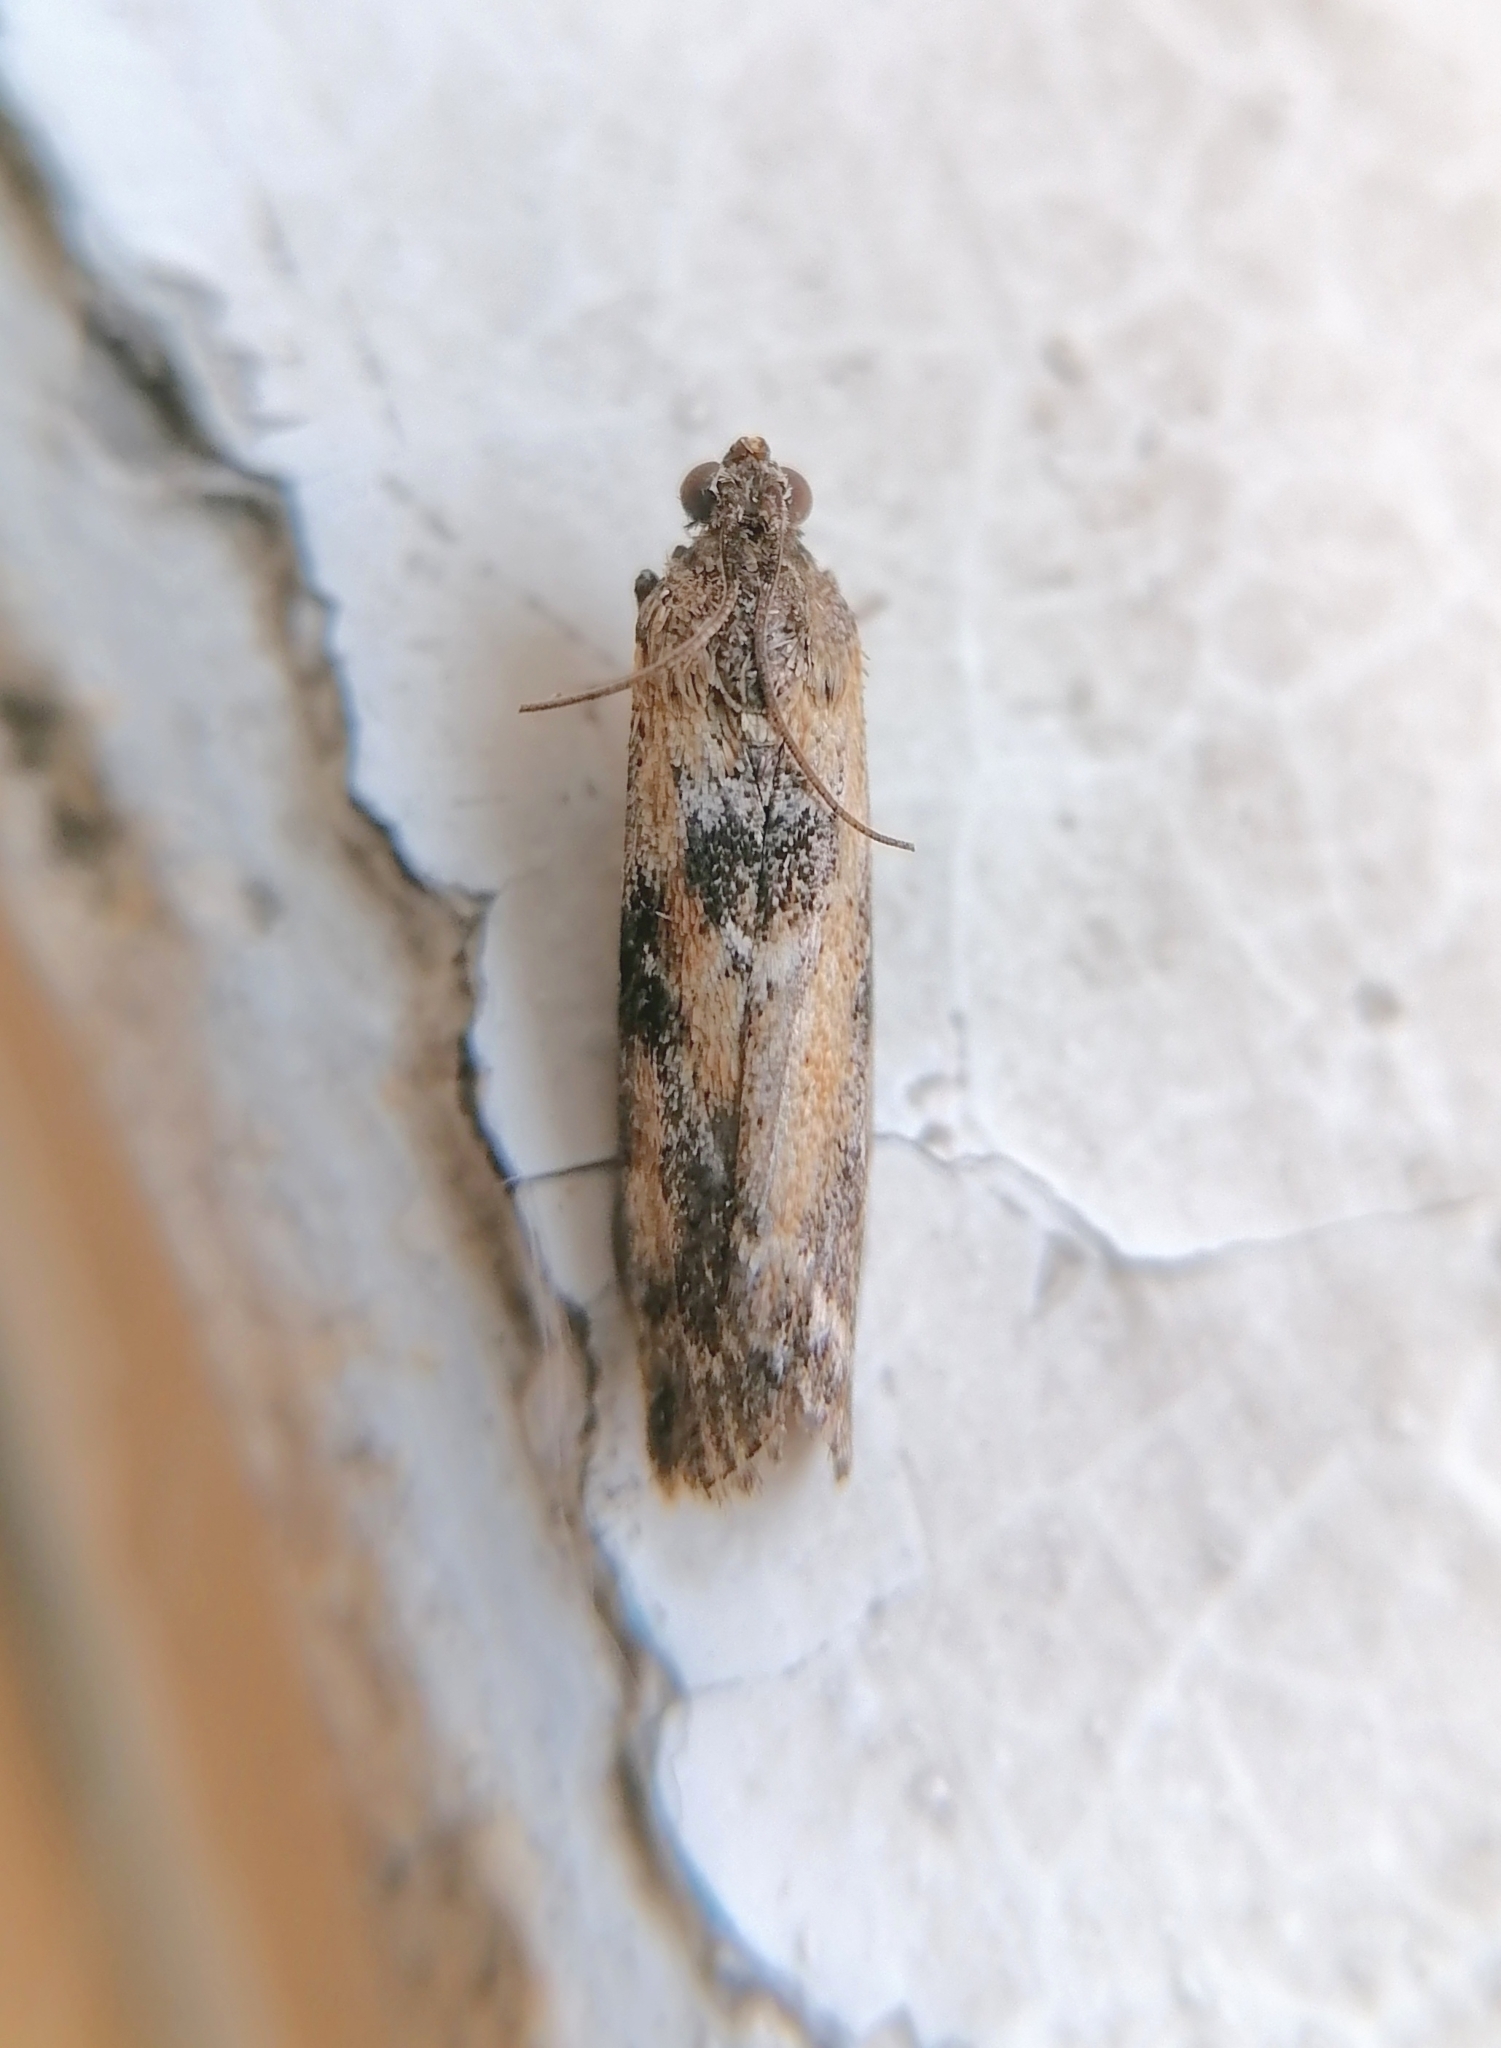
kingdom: Animalia
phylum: Arthropoda
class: Insecta
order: Lepidoptera
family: Pyralidae
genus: Sciota
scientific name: Sciota marmorata
